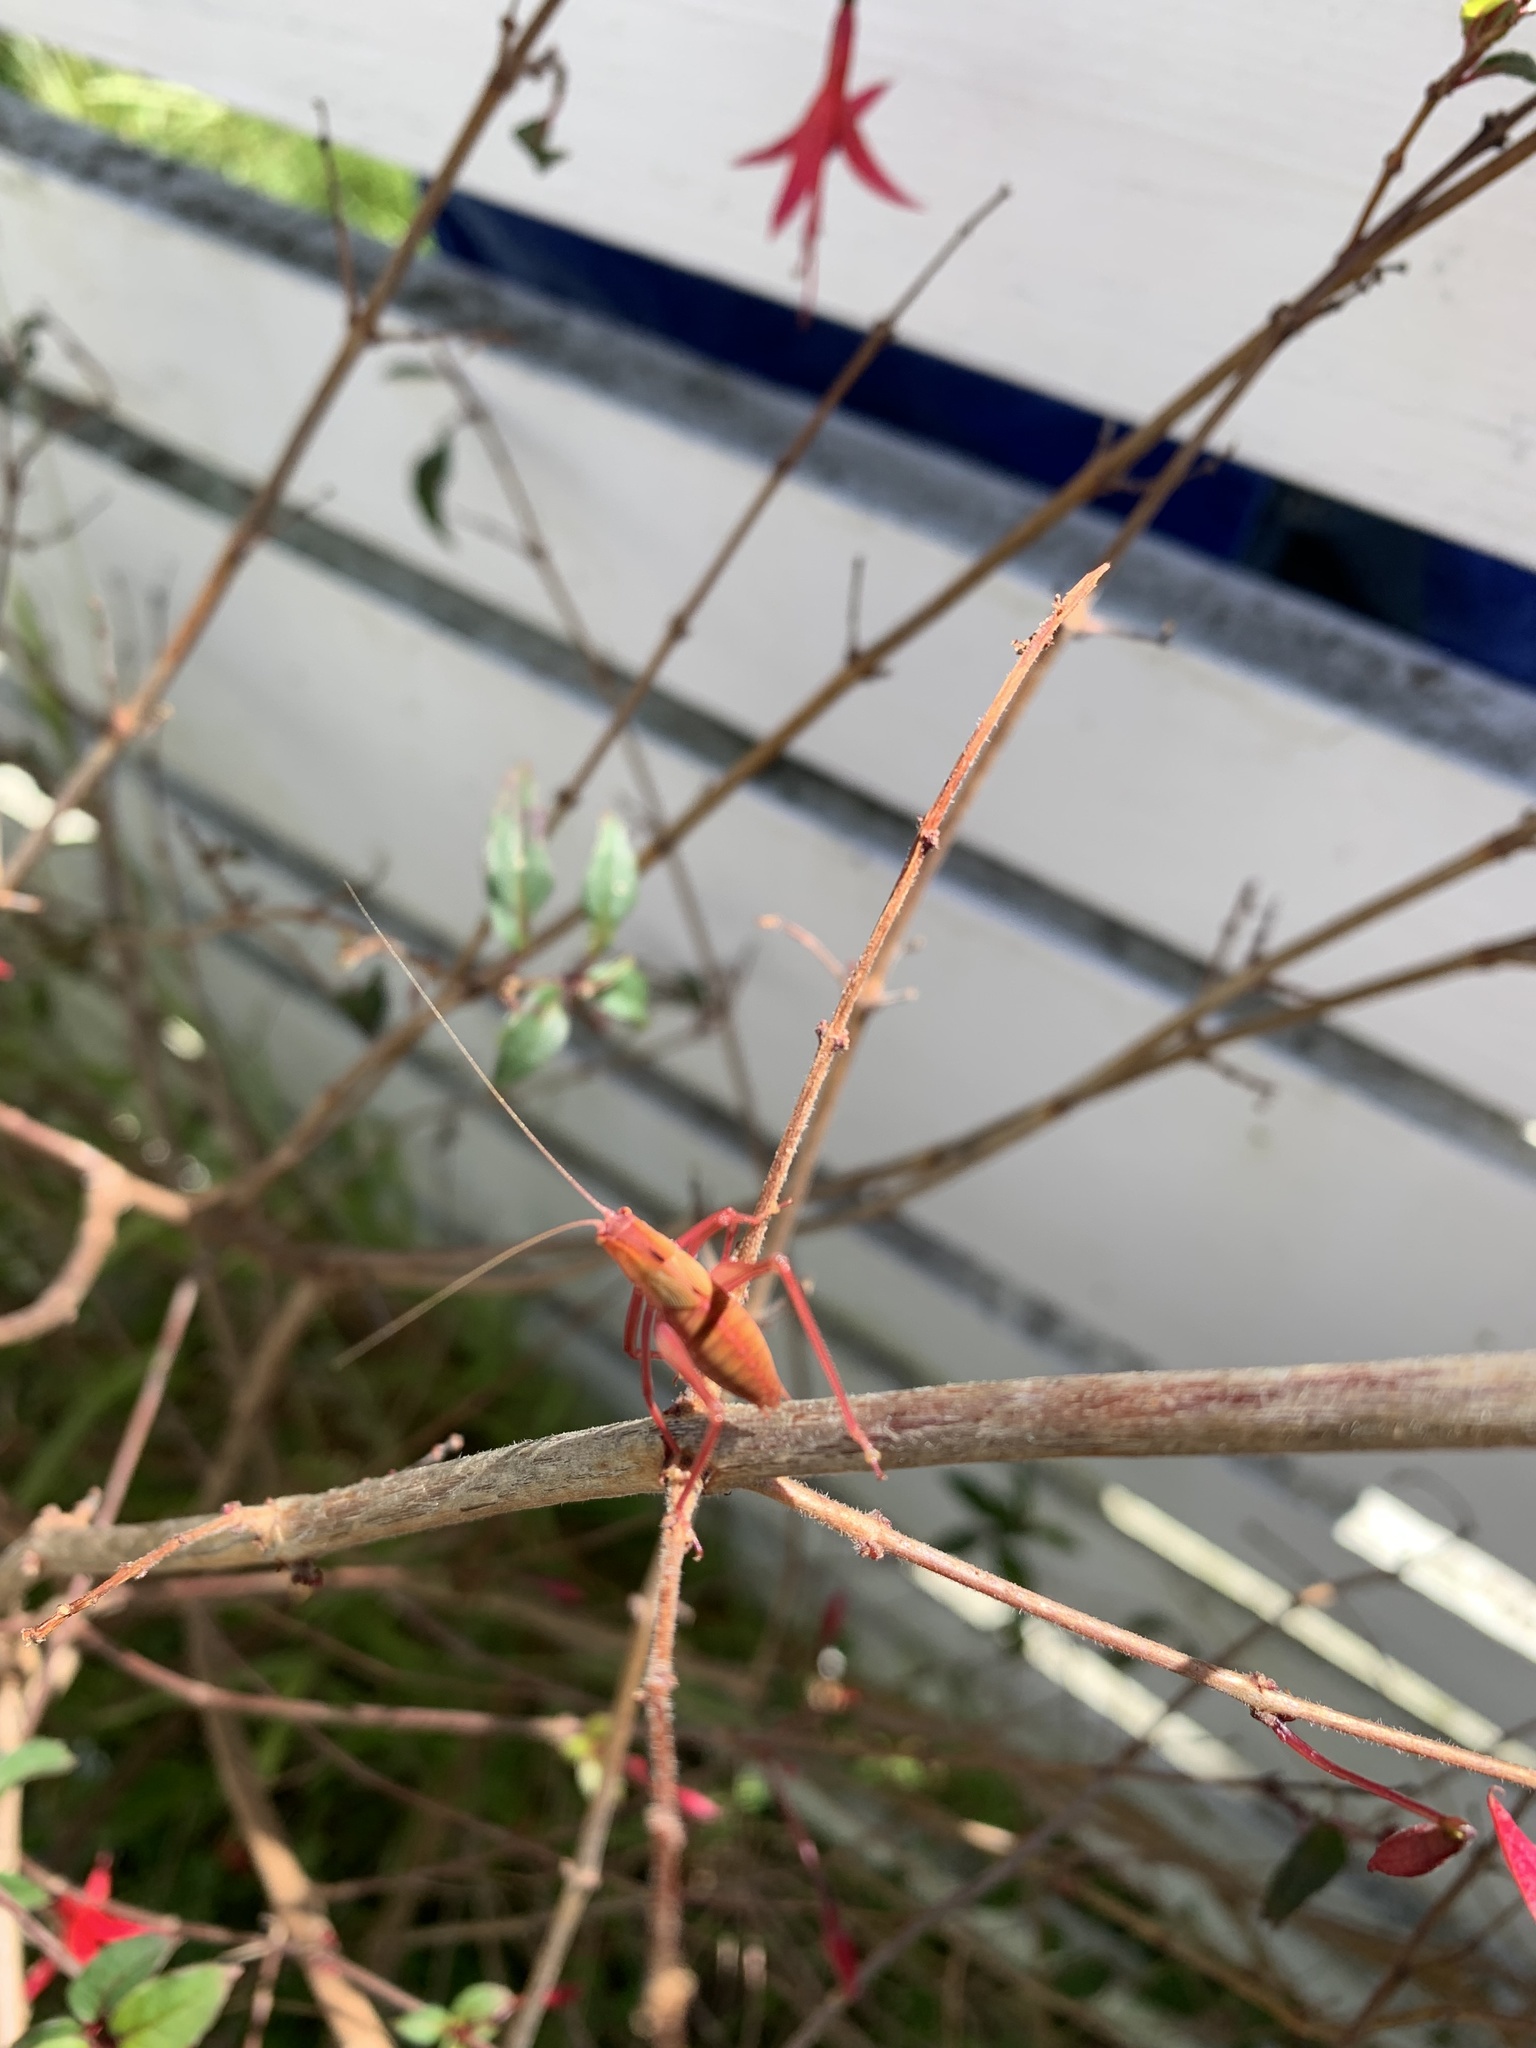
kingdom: Animalia
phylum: Arthropoda
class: Insecta
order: Orthoptera
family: Tettigoniidae
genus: Caedicia
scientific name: Caedicia simplex
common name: Common garden katydid
